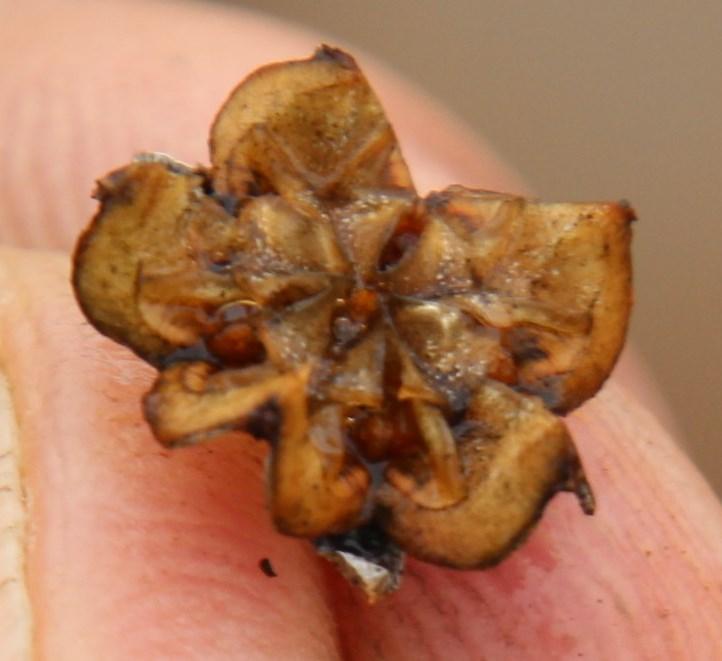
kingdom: Plantae
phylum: Tracheophyta
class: Magnoliopsida
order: Caryophyllales
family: Aizoaceae
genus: Ruschia
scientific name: Ruschia putterillii
